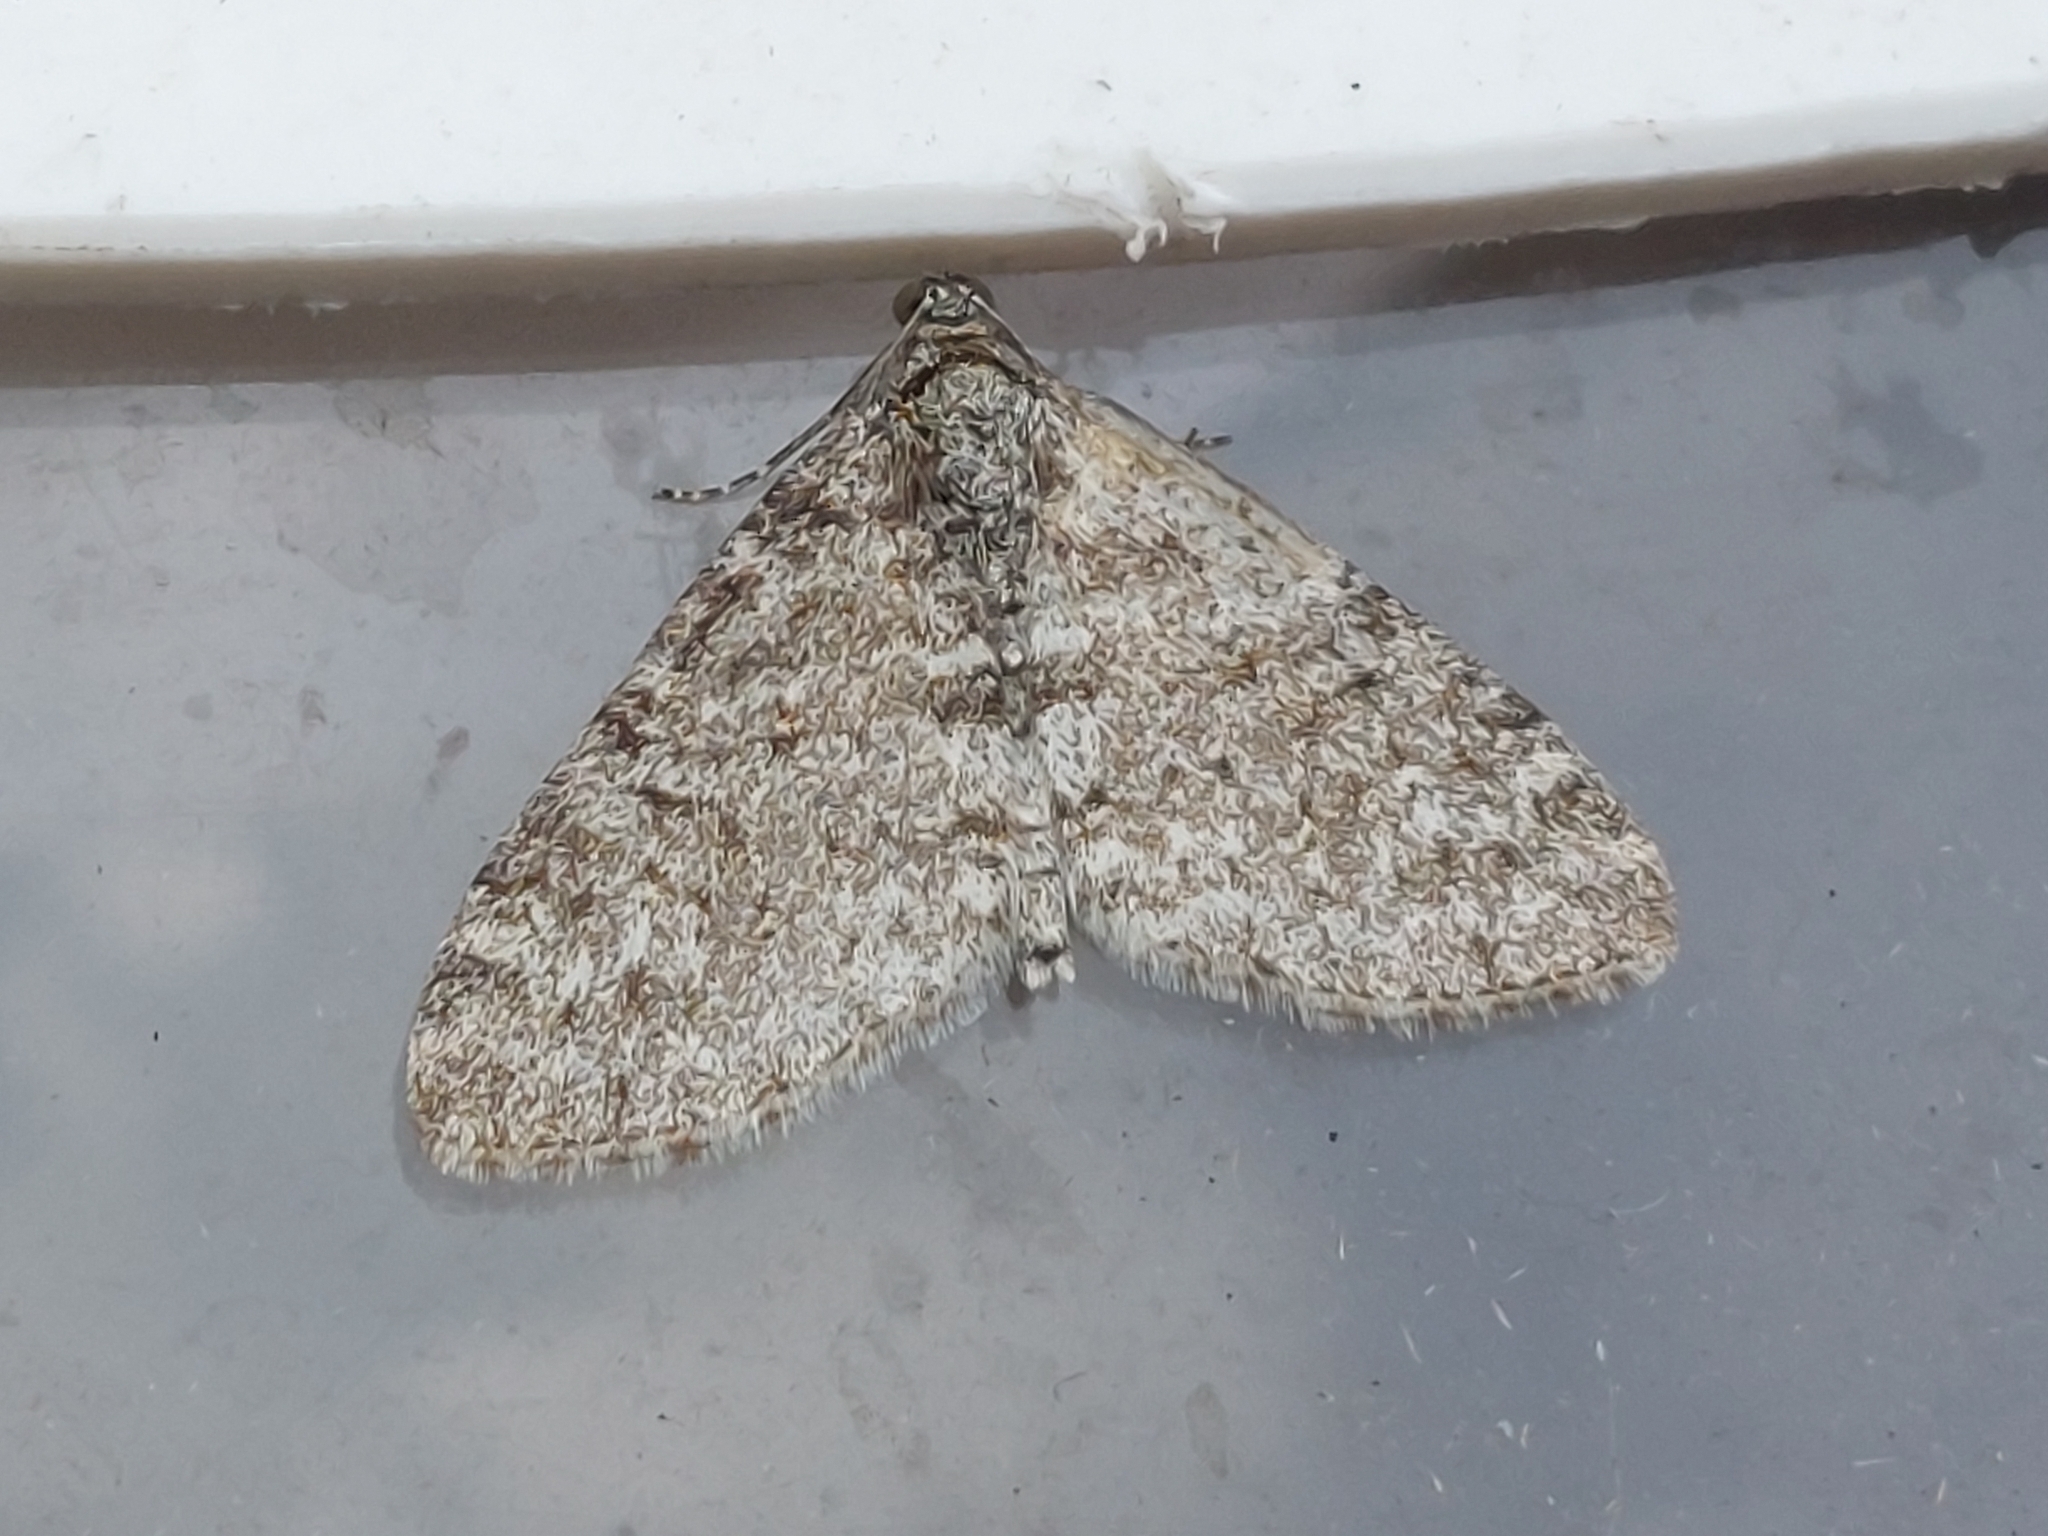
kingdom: Animalia
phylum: Arthropoda
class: Insecta
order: Lepidoptera
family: Geometridae
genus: Trichopteryx
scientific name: Trichopteryx carpinata
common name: Early tooth-striped
